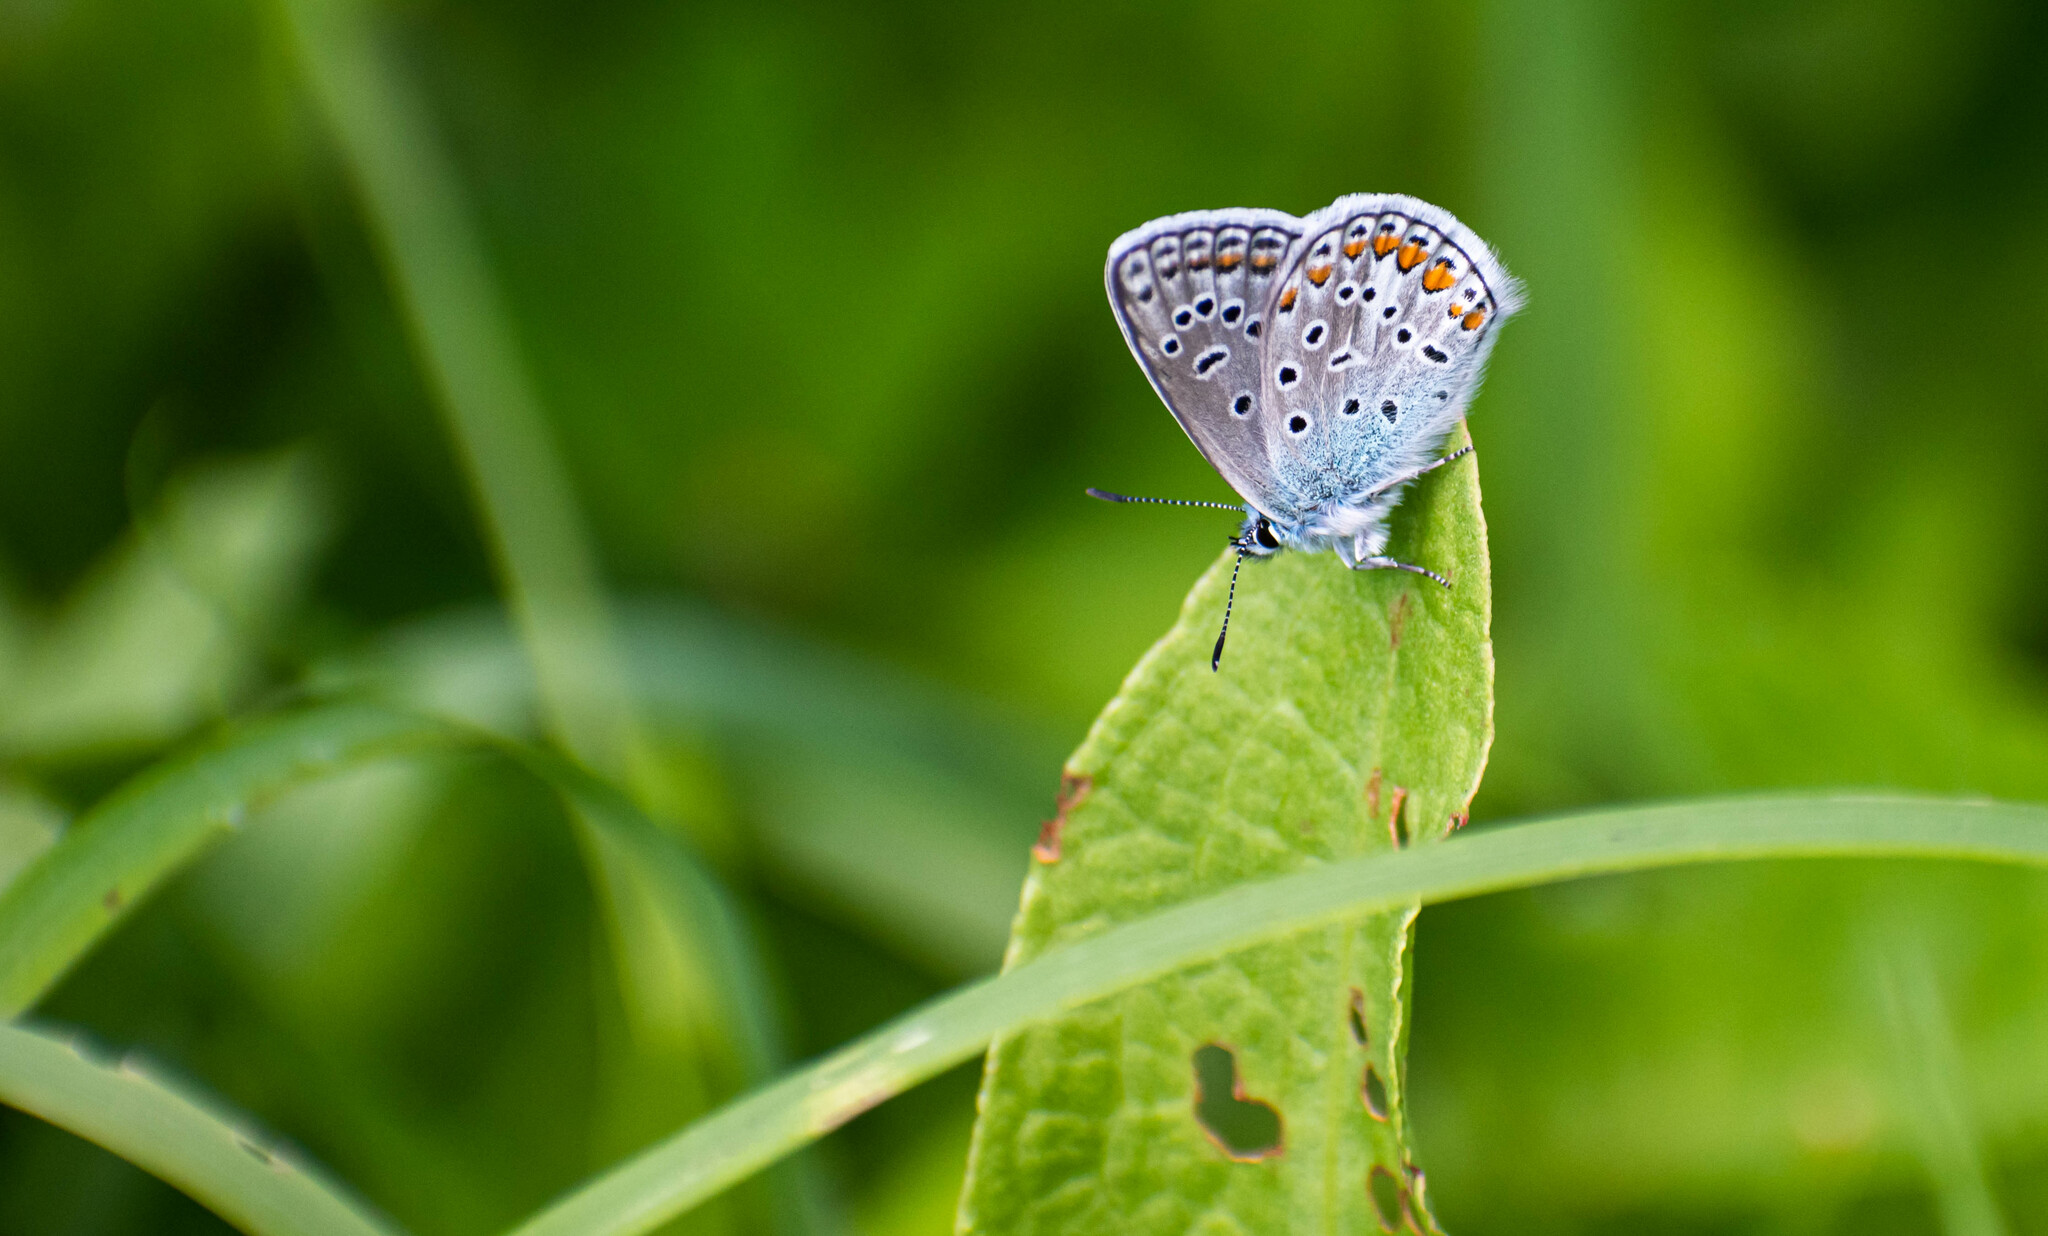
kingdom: Animalia
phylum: Arthropoda
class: Insecta
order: Lepidoptera
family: Lycaenidae
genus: Polyommatus
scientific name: Polyommatus icarus
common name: Common blue
